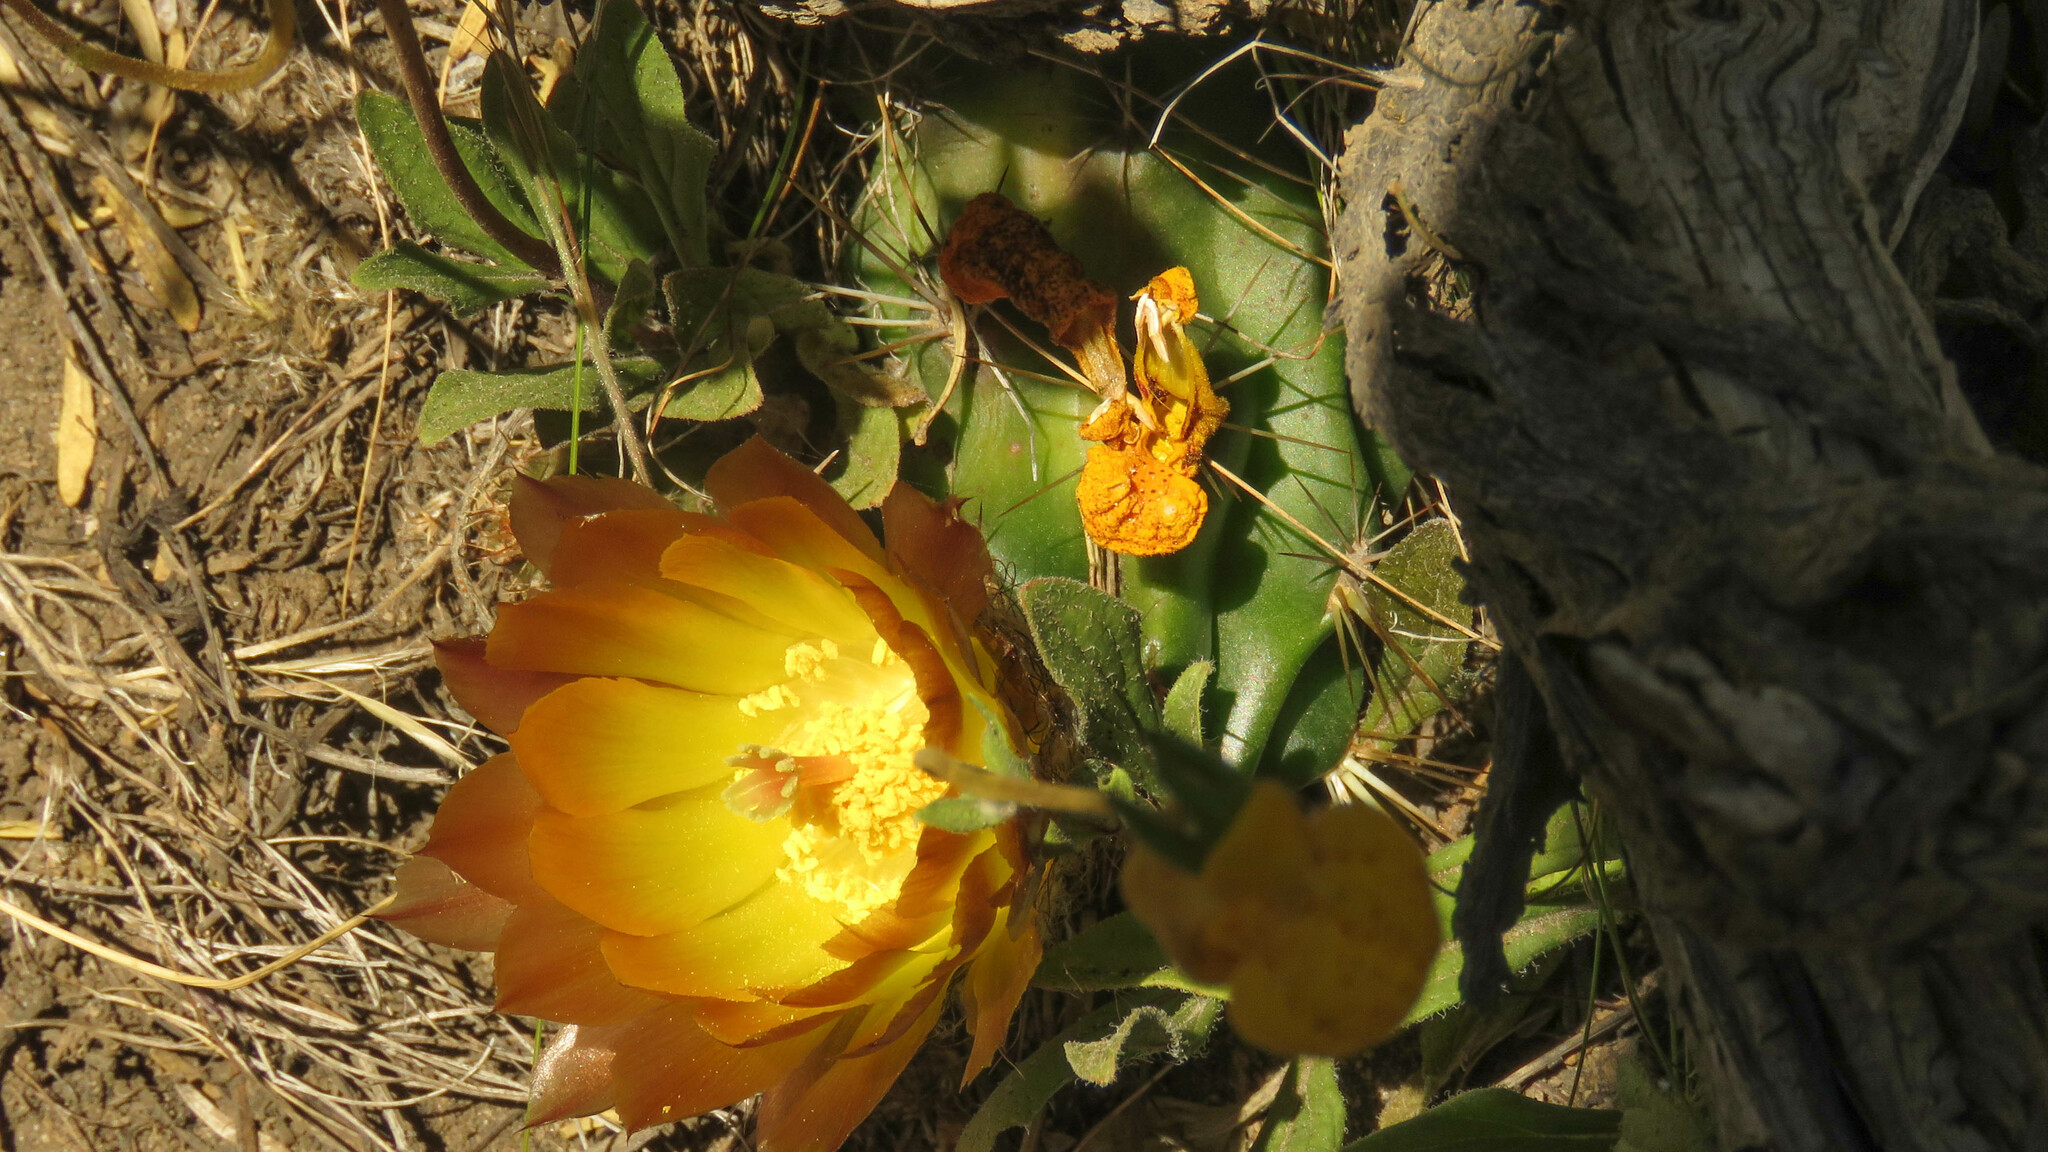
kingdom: Plantae
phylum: Tracheophyta
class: Magnoliopsida
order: Caryophyllales
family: Cactaceae
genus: Austrocactus
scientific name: Austrocactus coxii
